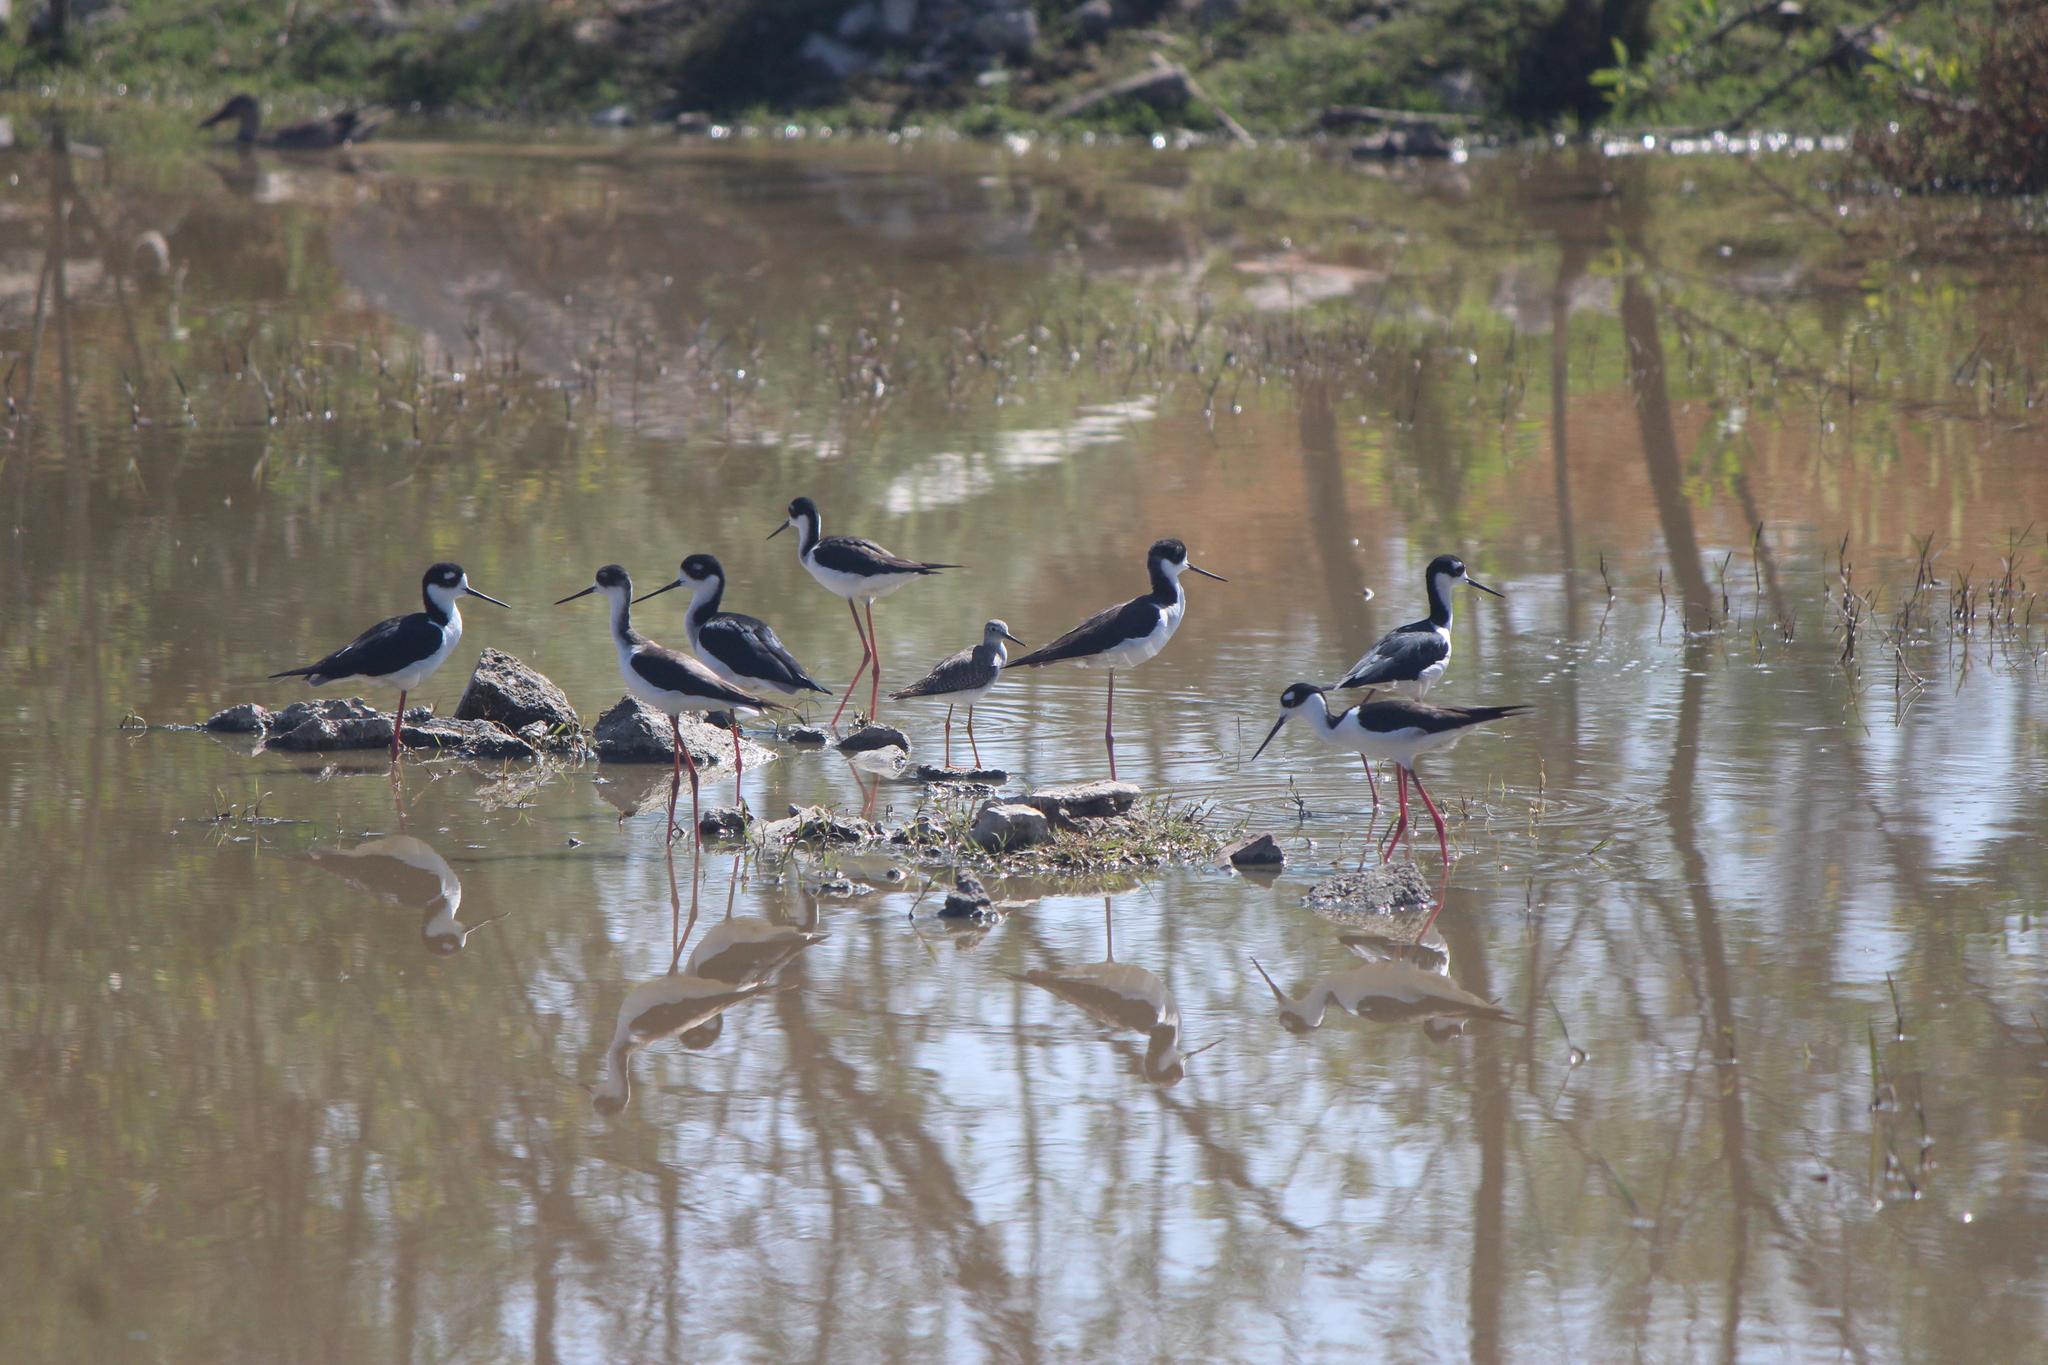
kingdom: Animalia
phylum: Chordata
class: Aves
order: Charadriiformes
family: Recurvirostridae
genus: Himantopus
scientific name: Himantopus mexicanus
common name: Black-necked stilt
